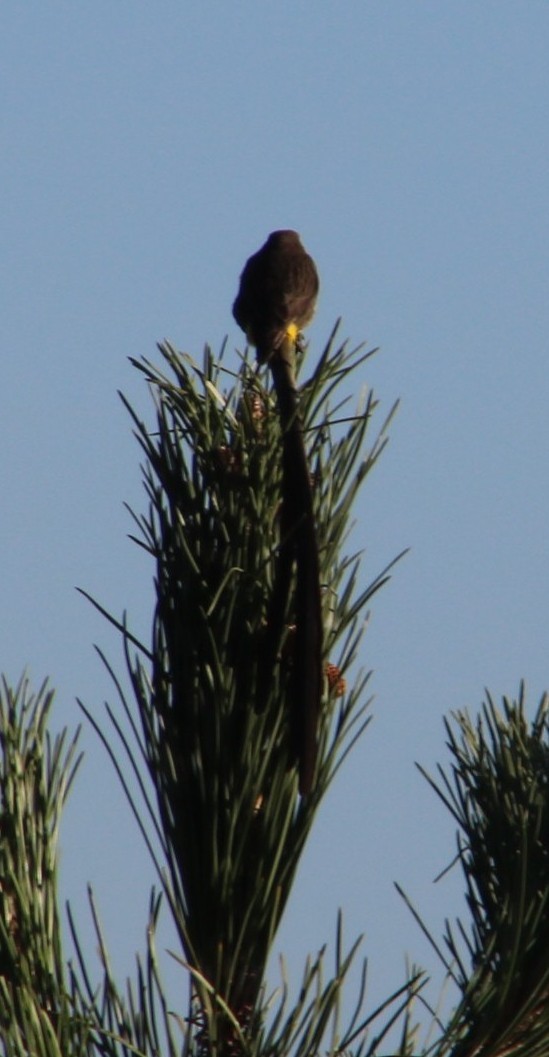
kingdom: Animalia
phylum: Chordata
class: Aves
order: Passeriformes
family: Promeropidae
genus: Promerops
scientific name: Promerops cafer
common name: Cape sugarbird
